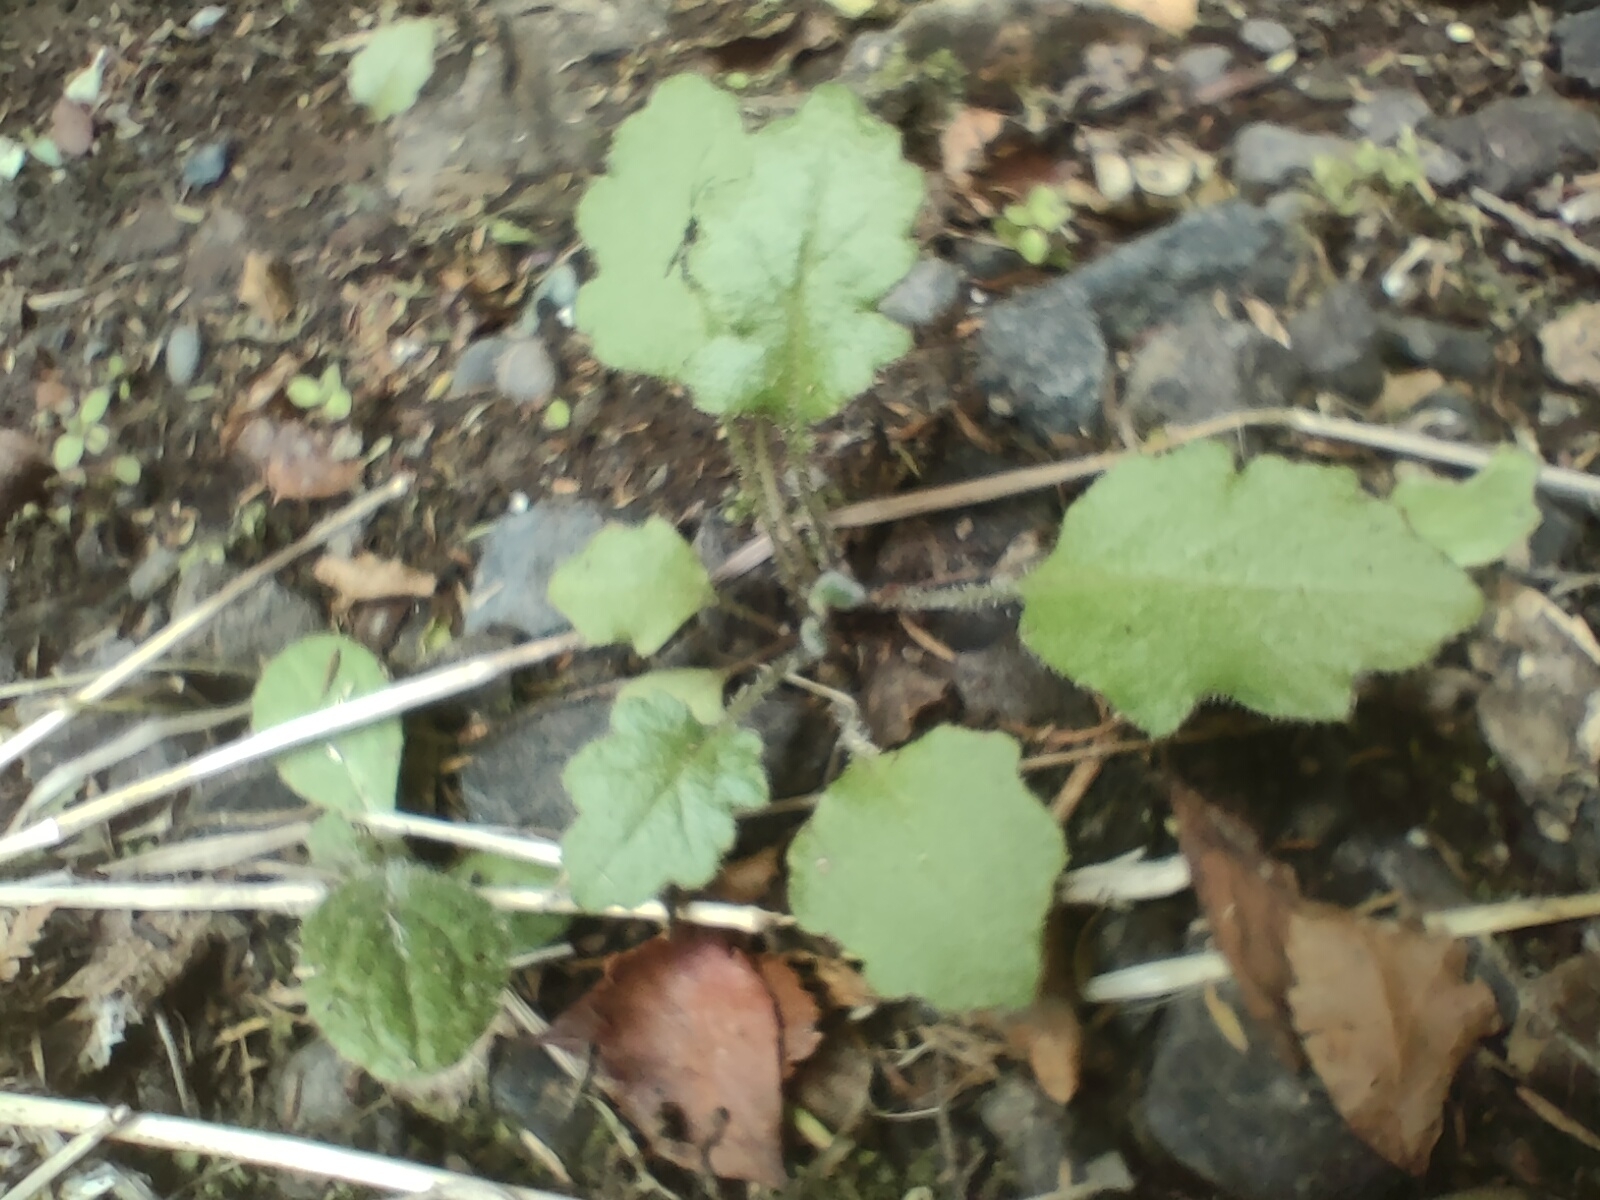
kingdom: Plantae
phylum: Tracheophyta
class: Magnoliopsida
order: Asterales
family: Asteraceae
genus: Senecio
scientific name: Senecio wairauensis
